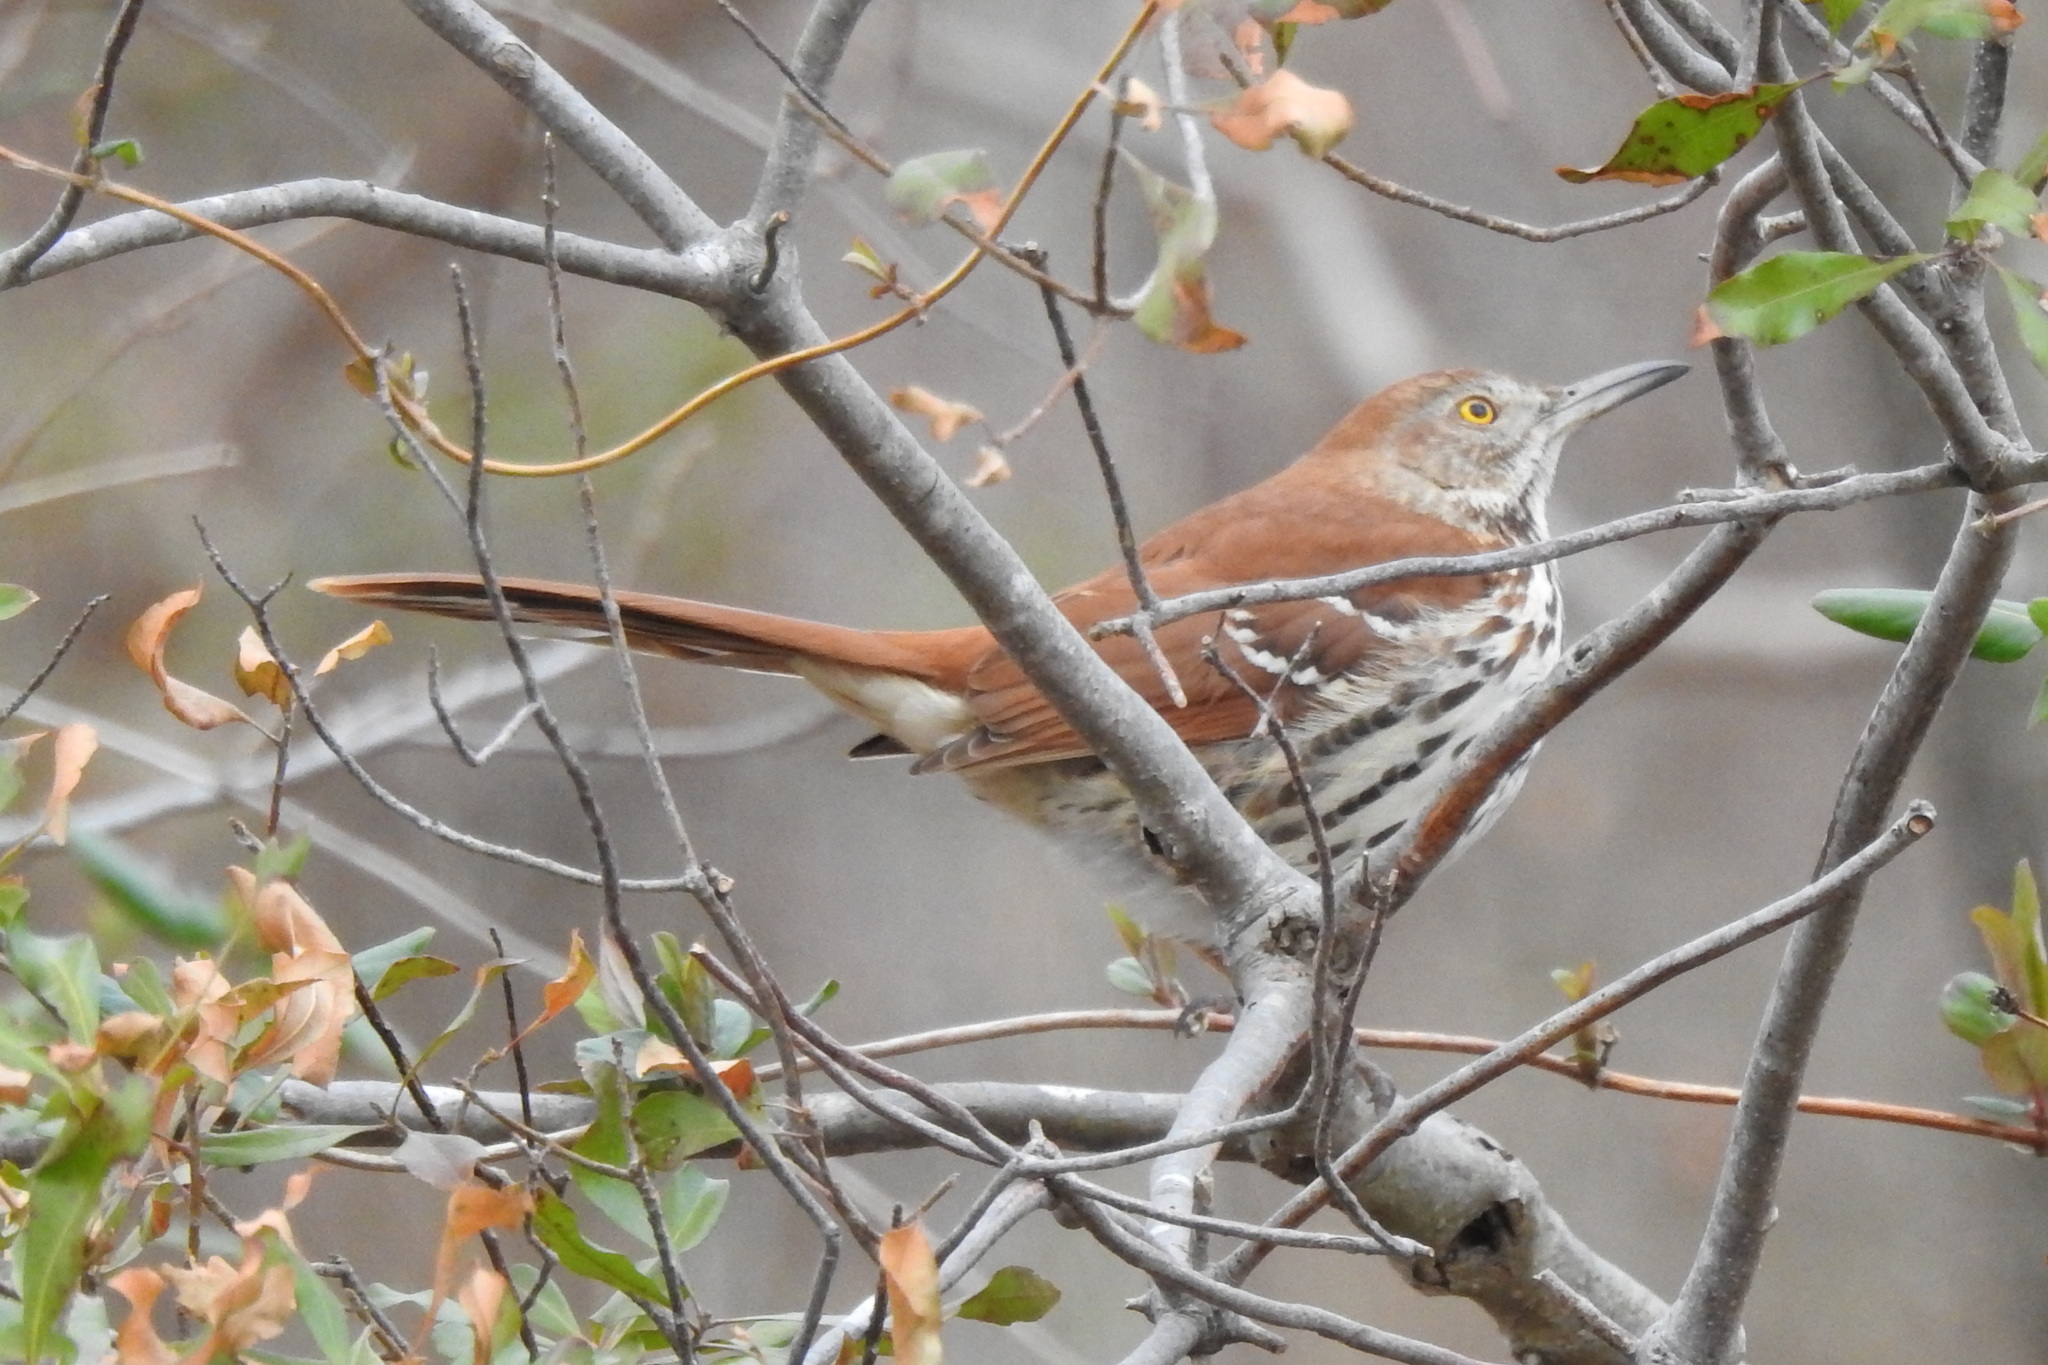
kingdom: Animalia
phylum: Chordata
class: Aves
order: Passeriformes
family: Mimidae
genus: Toxostoma
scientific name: Toxostoma rufum
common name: Brown thrasher
